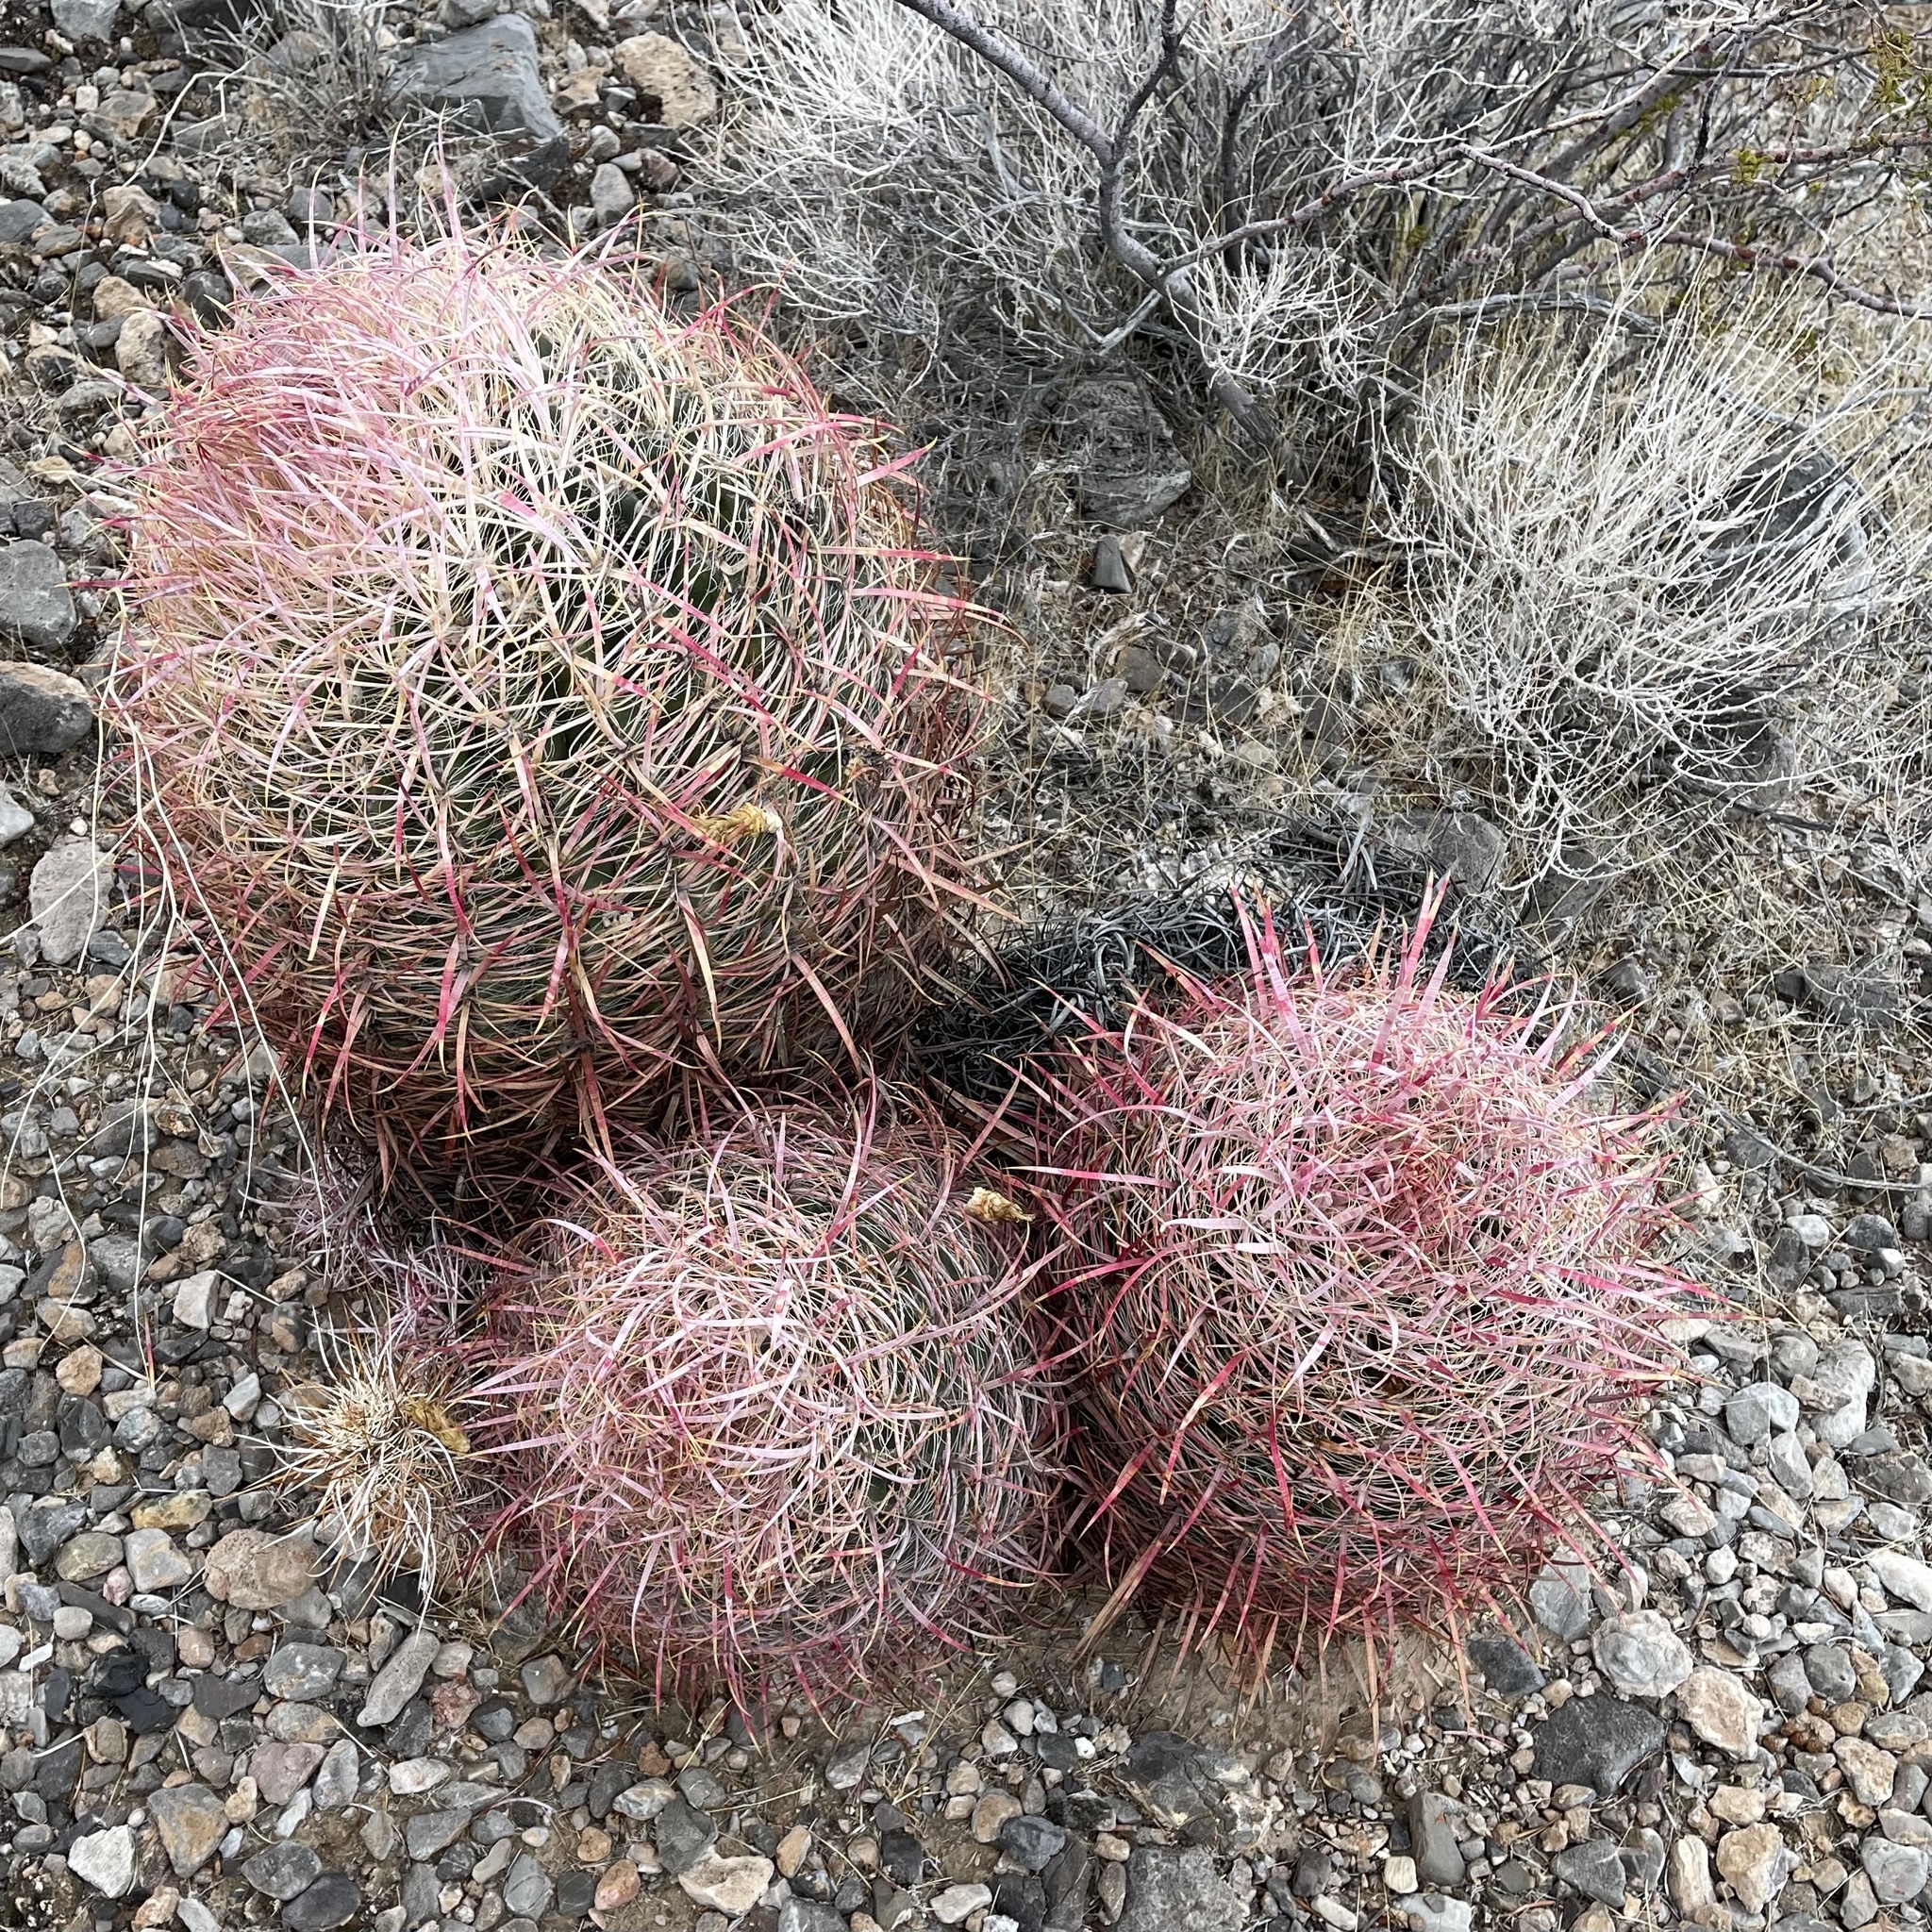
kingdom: Plantae
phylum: Tracheophyta
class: Magnoliopsida
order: Caryophyllales
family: Cactaceae
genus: Ferocactus
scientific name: Ferocactus cylindraceus
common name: California barrel cactus
